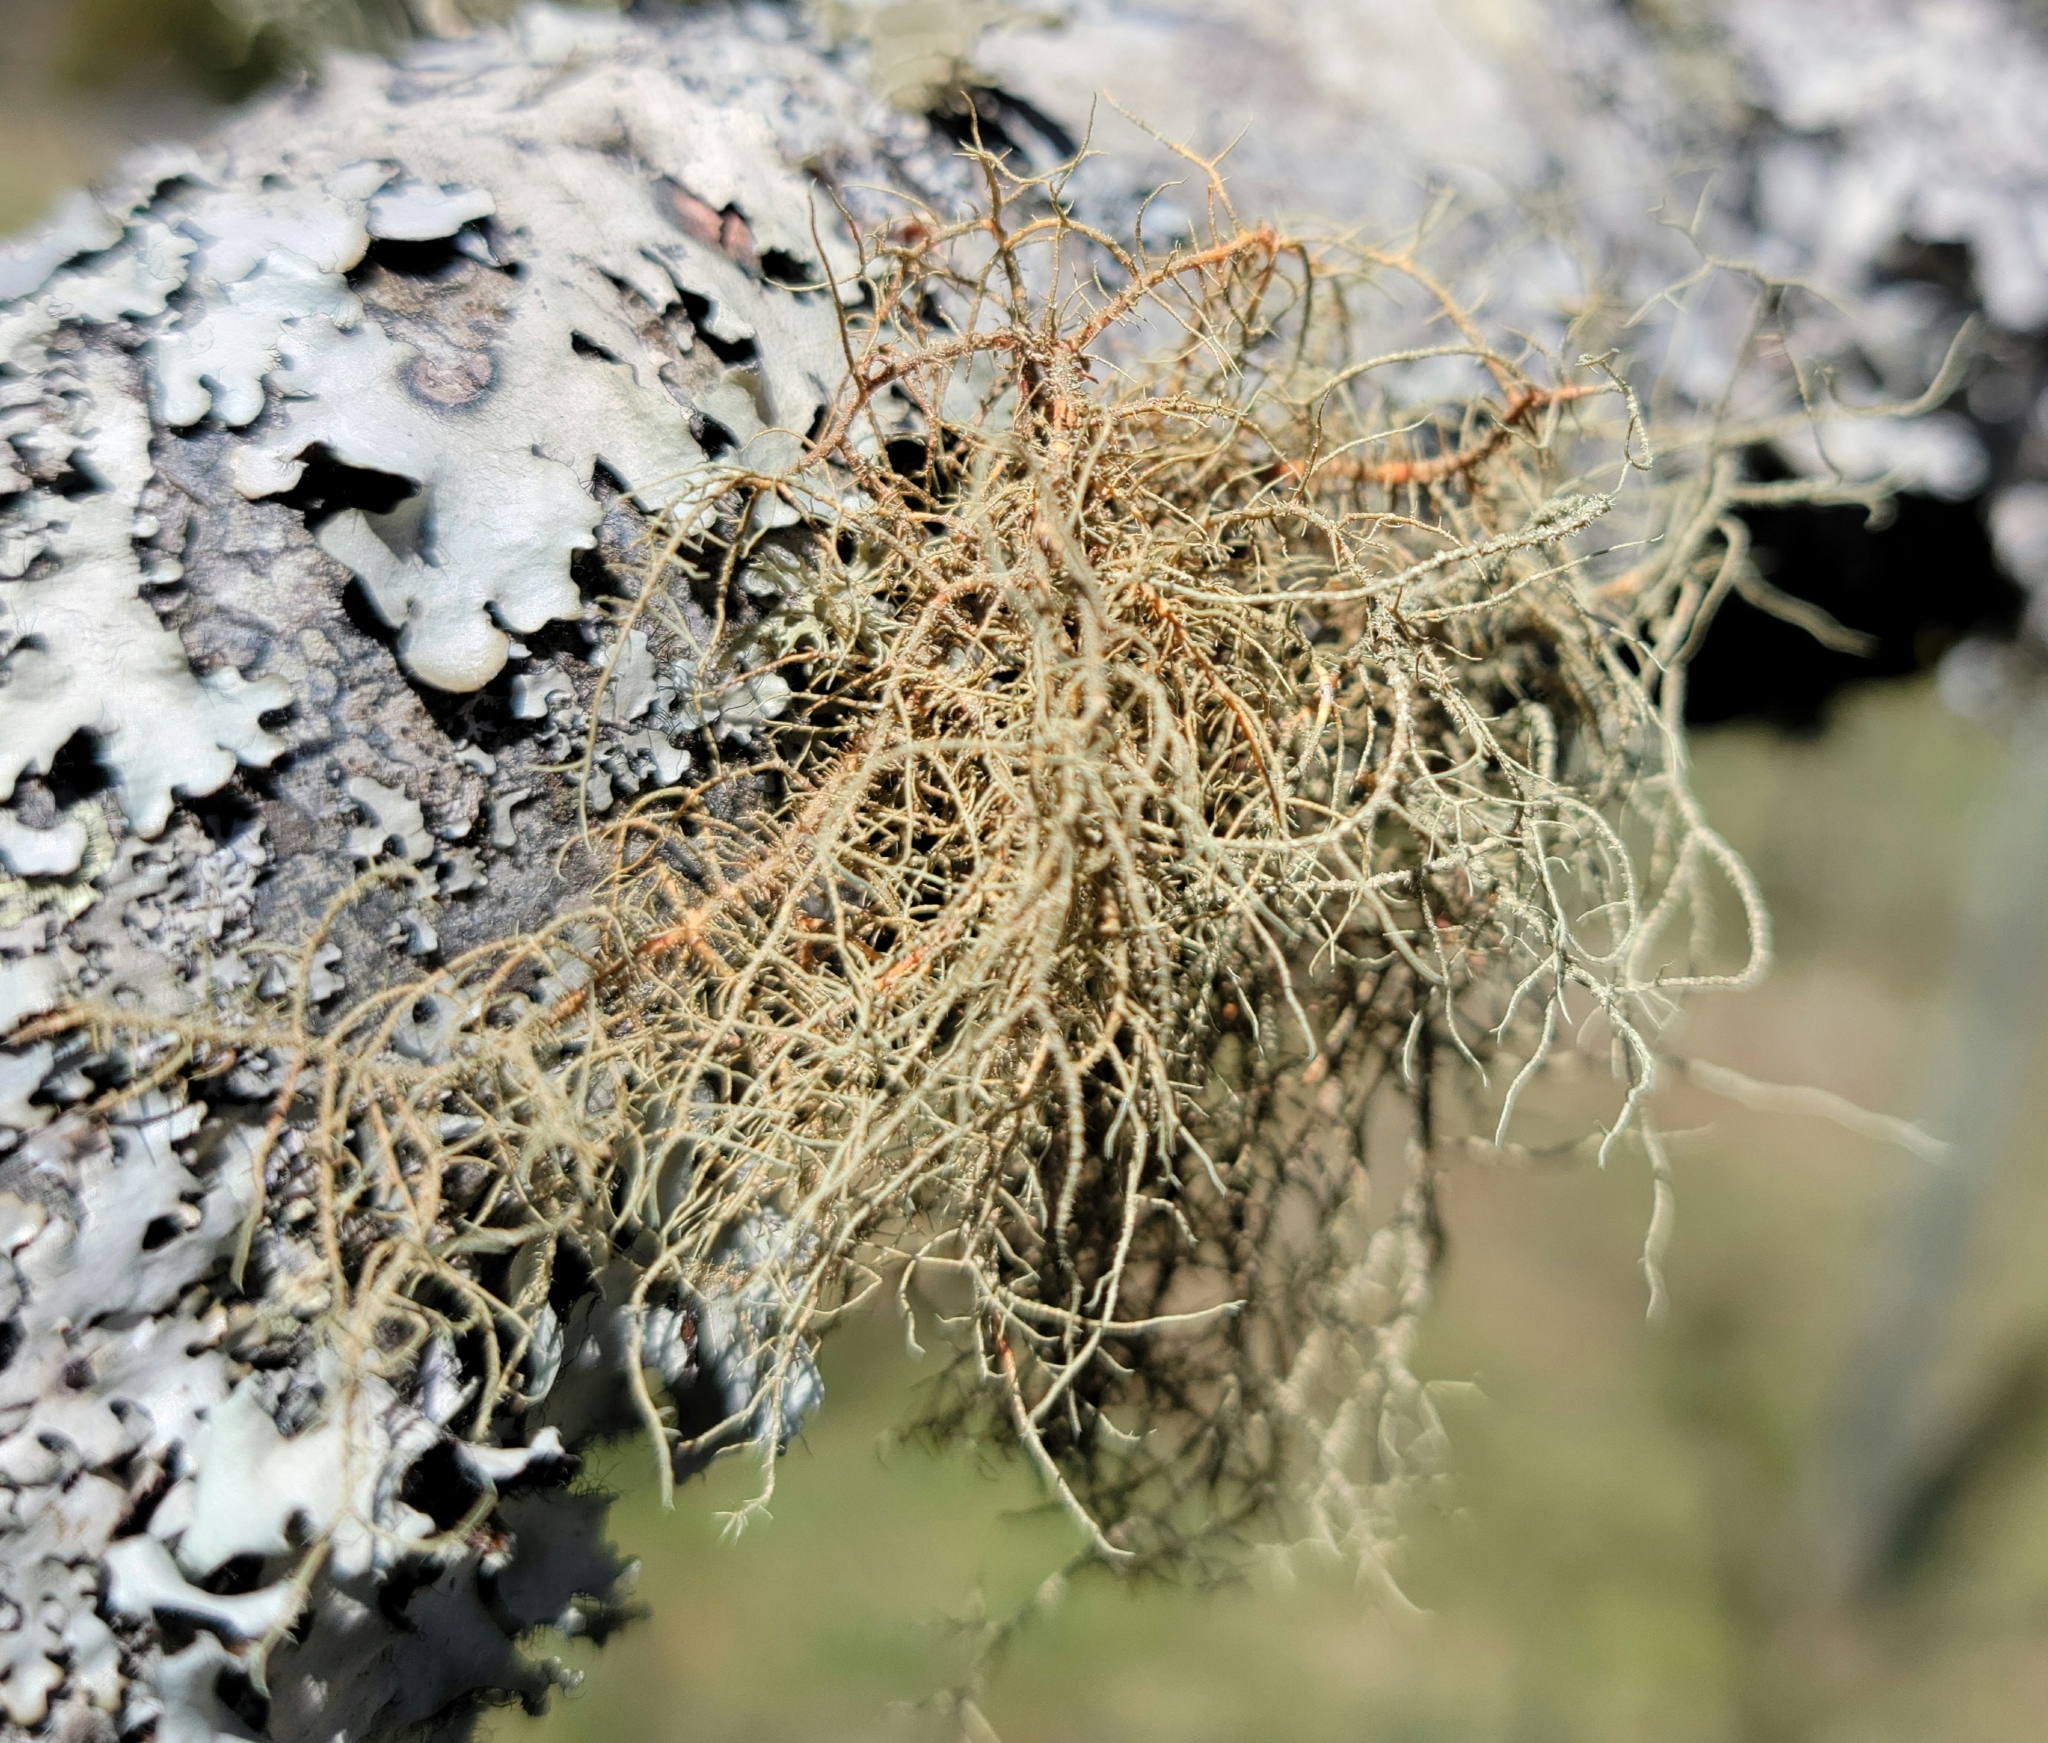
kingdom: Fungi
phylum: Ascomycota
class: Lecanoromycetes
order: Lecanorales
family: Parmeliaceae
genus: Usnea
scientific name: Usnea rubicunda
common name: Red beard lichen
